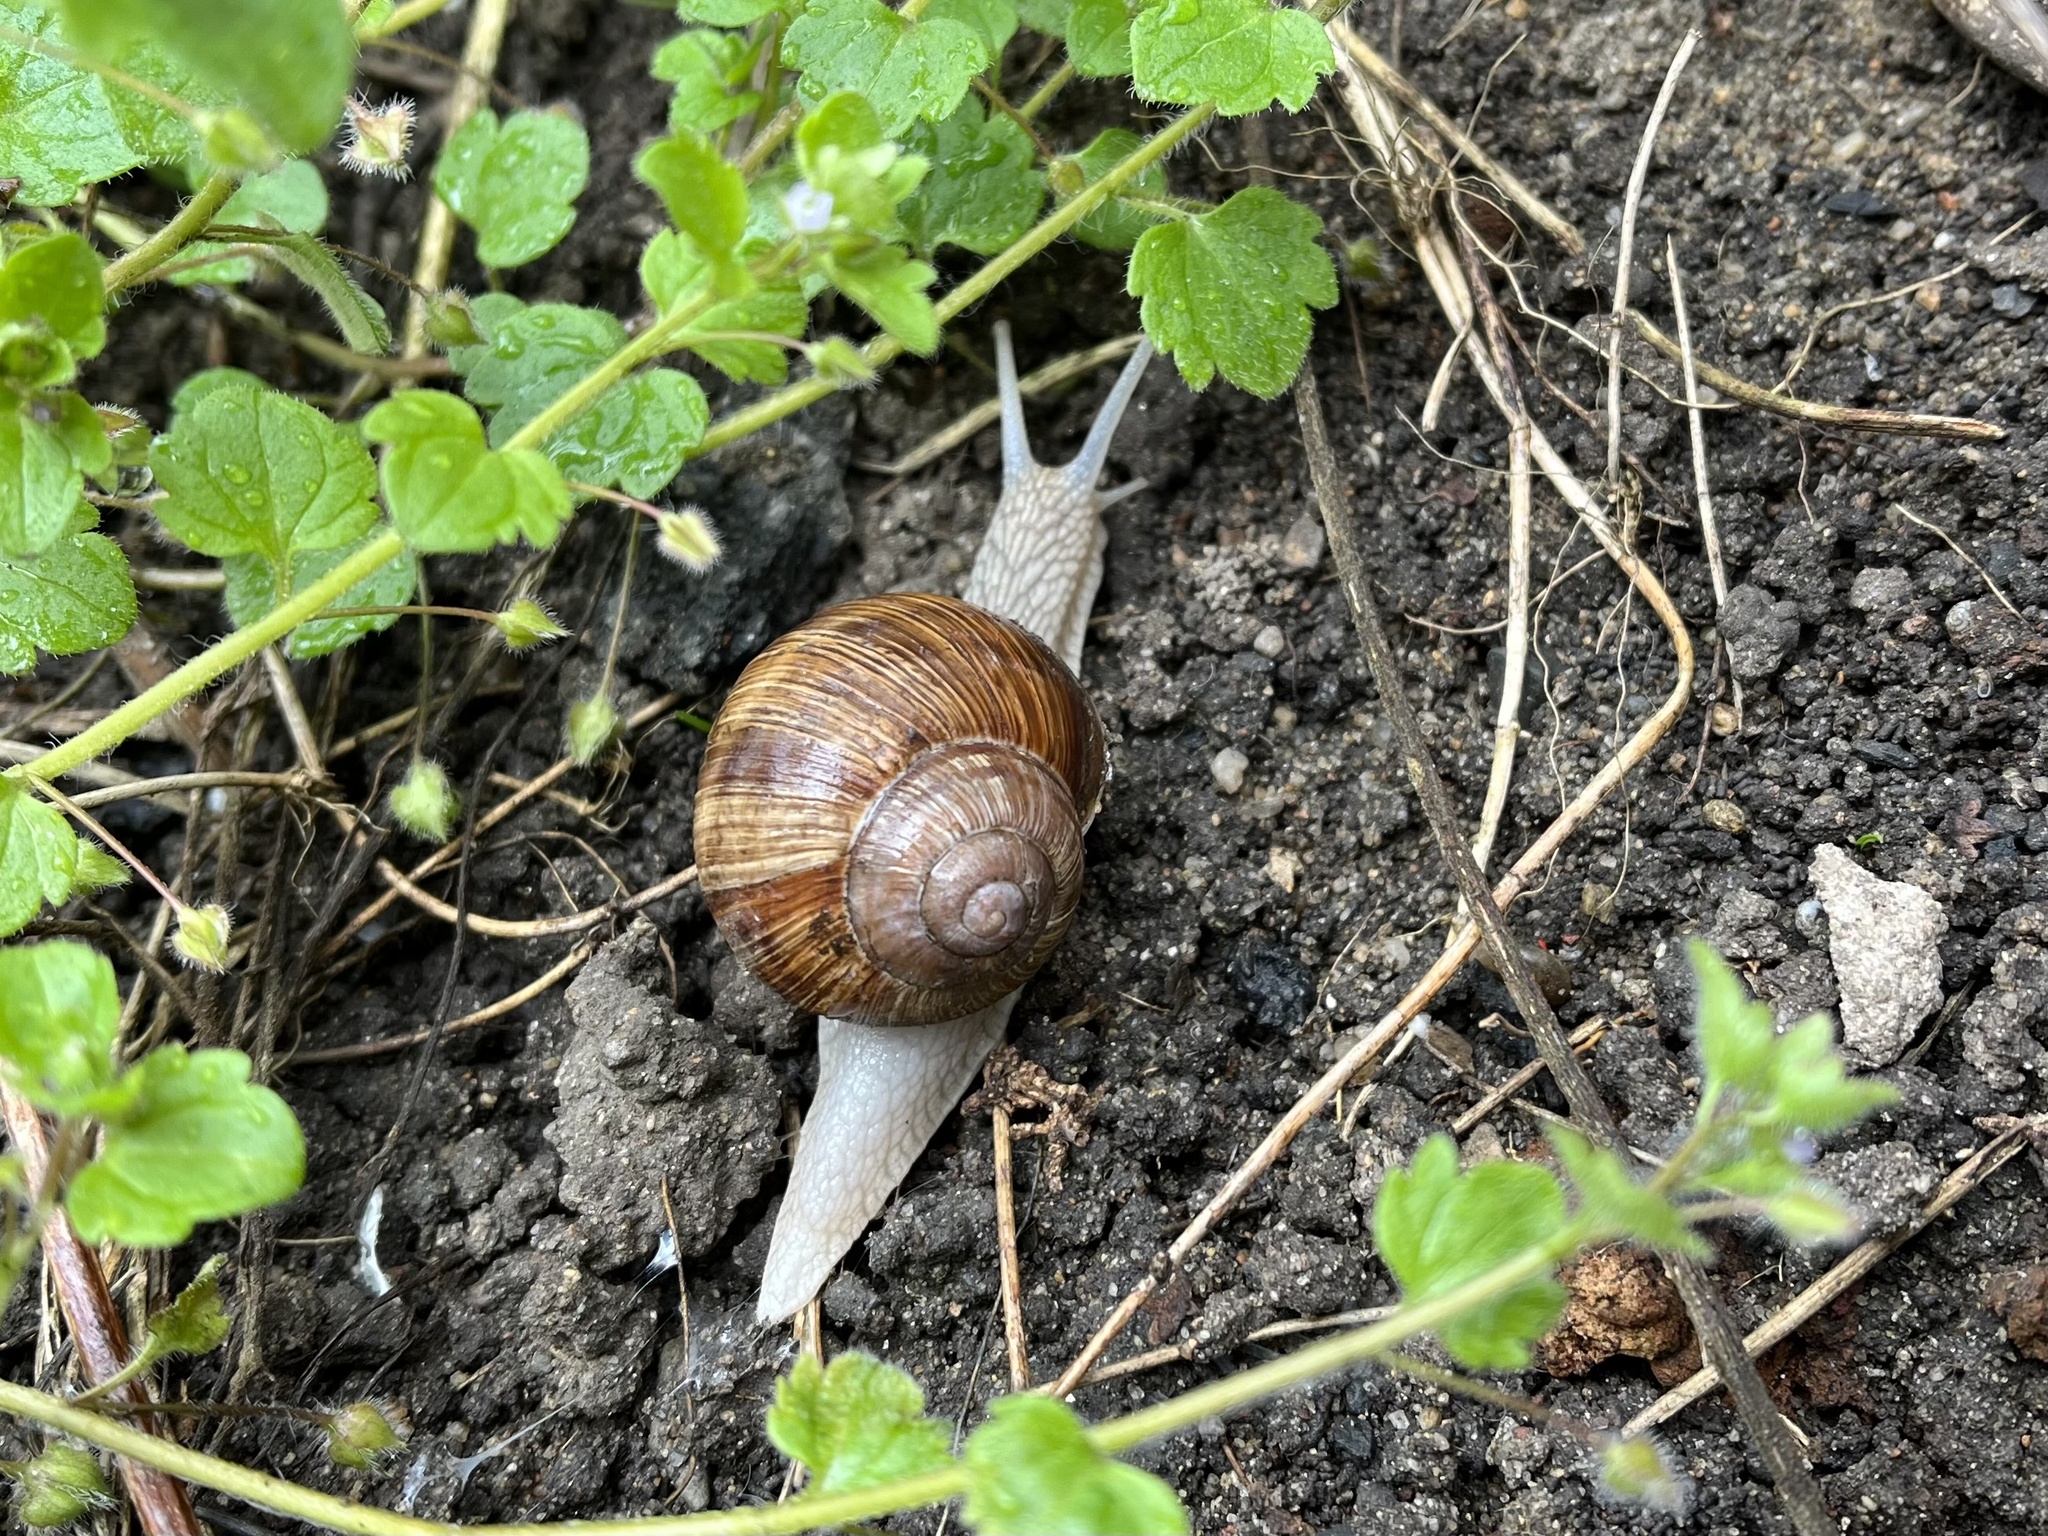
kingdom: Animalia
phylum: Mollusca
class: Gastropoda
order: Stylommatophora
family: Helicidae
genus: Helix
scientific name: Helix pomatia
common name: Roman snail
